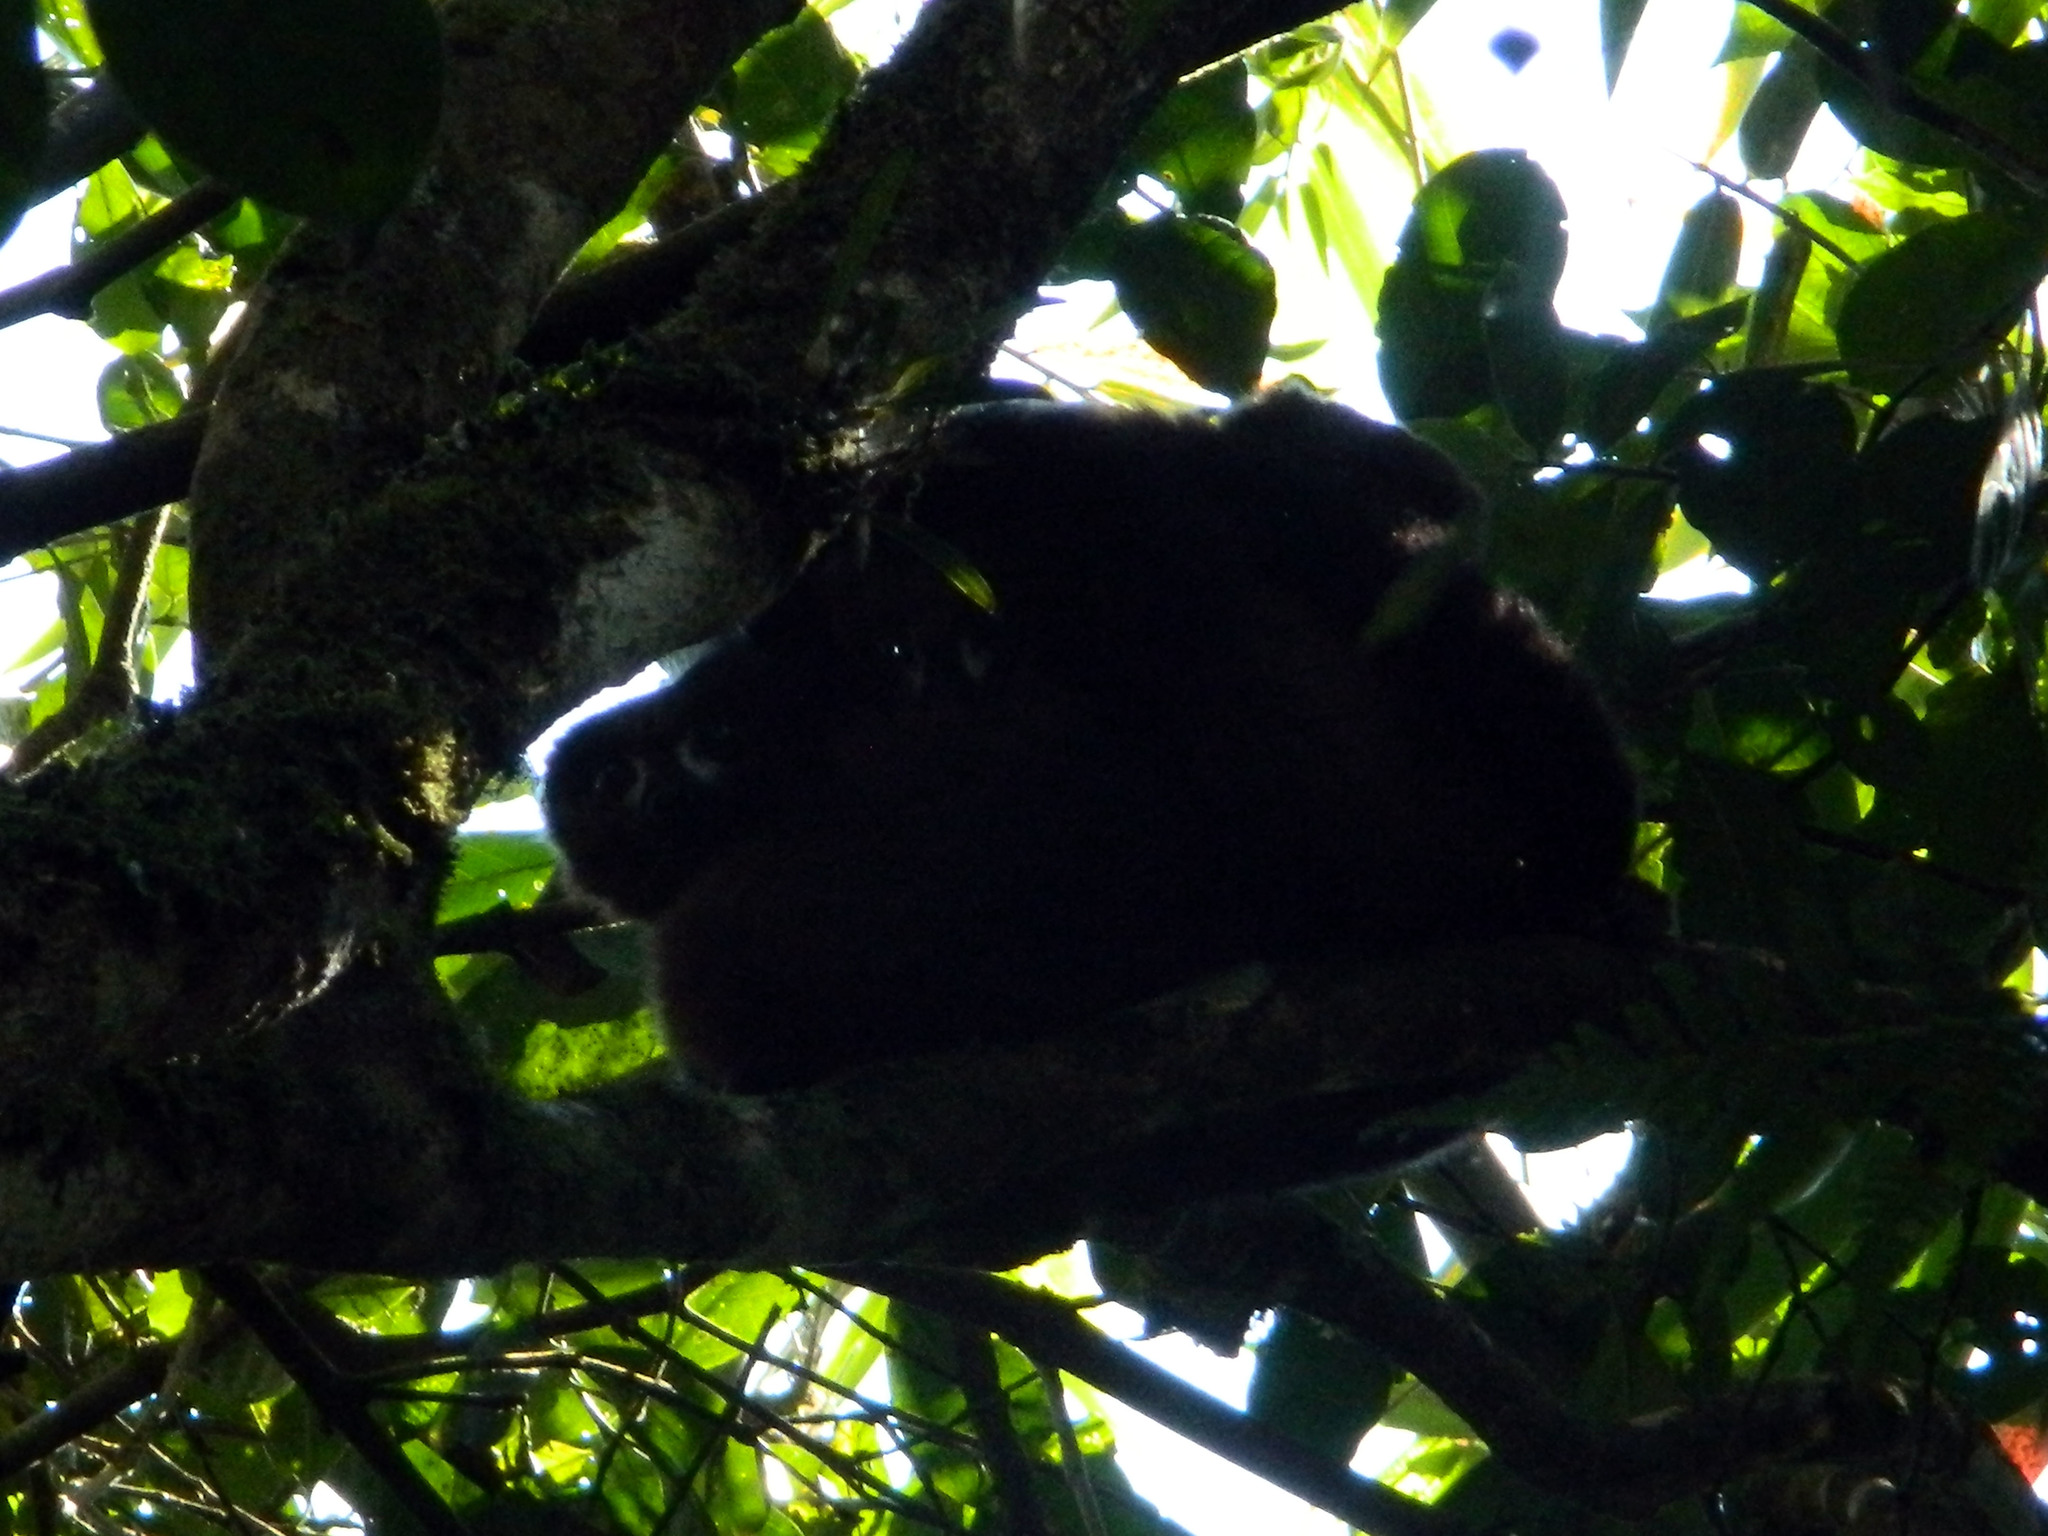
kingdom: Animalia
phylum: Chordata
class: Mammalia
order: Primates
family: Lemuridae
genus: Eulemur
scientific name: Eulemur rubriventer
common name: Red-bellied lemur
